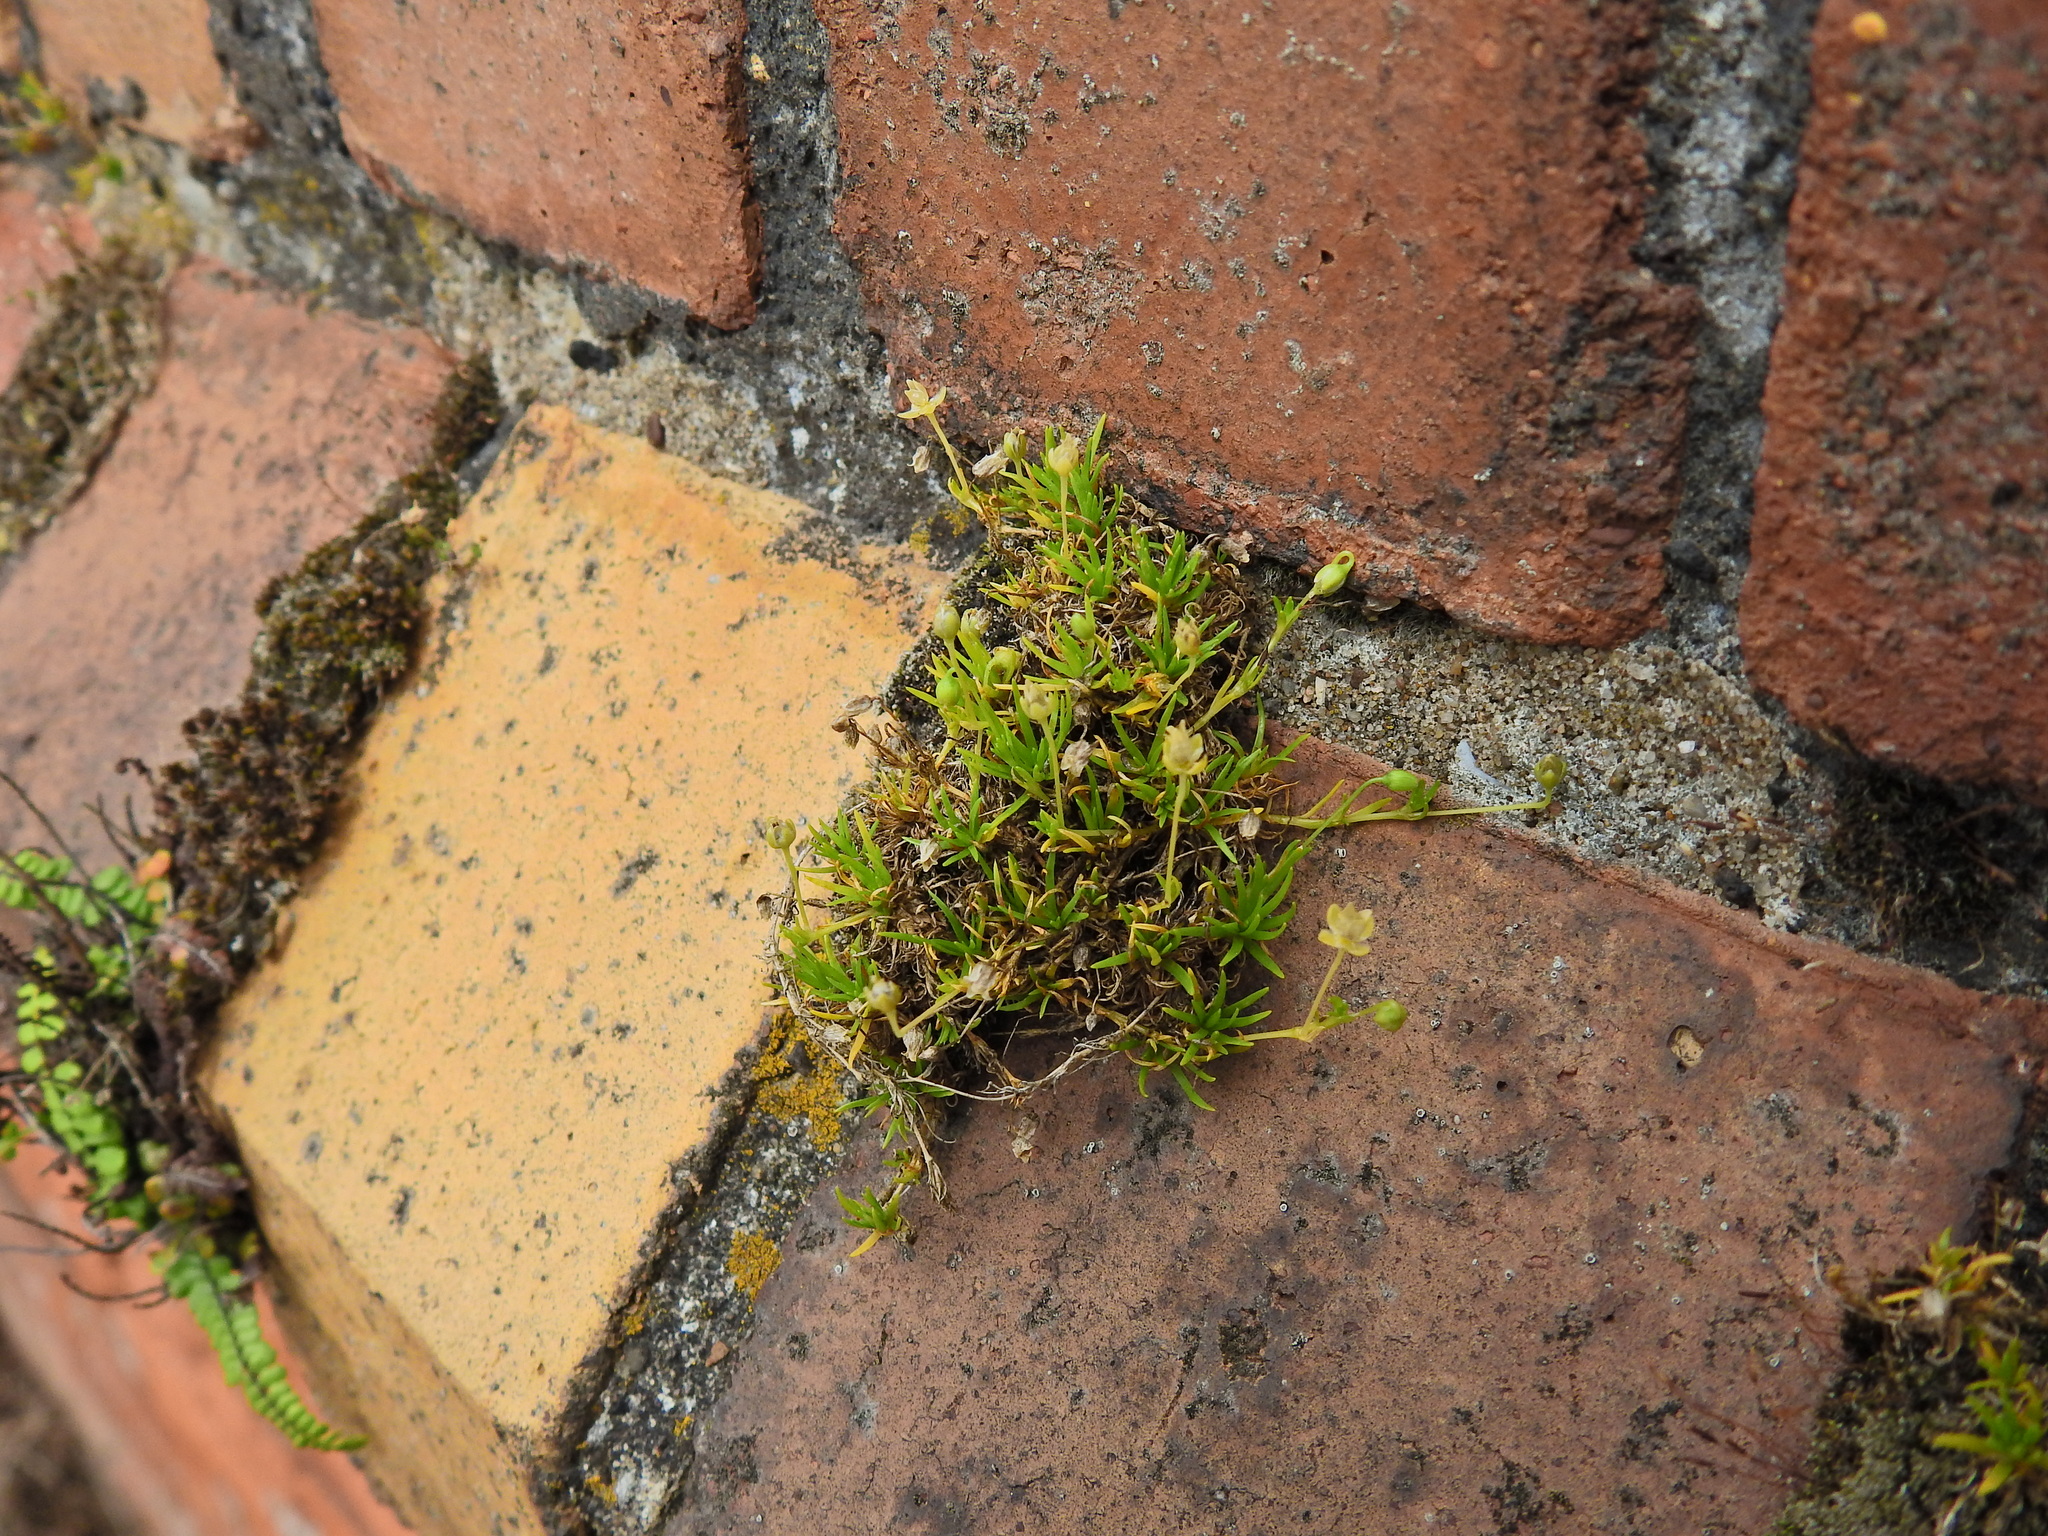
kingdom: Plantae
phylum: Tracheophyta
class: Magnoliopsida
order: Caryophyllales
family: Caryophyllaceae
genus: Sagina
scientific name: Sagina procumbens
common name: Procumbent pearlwort
